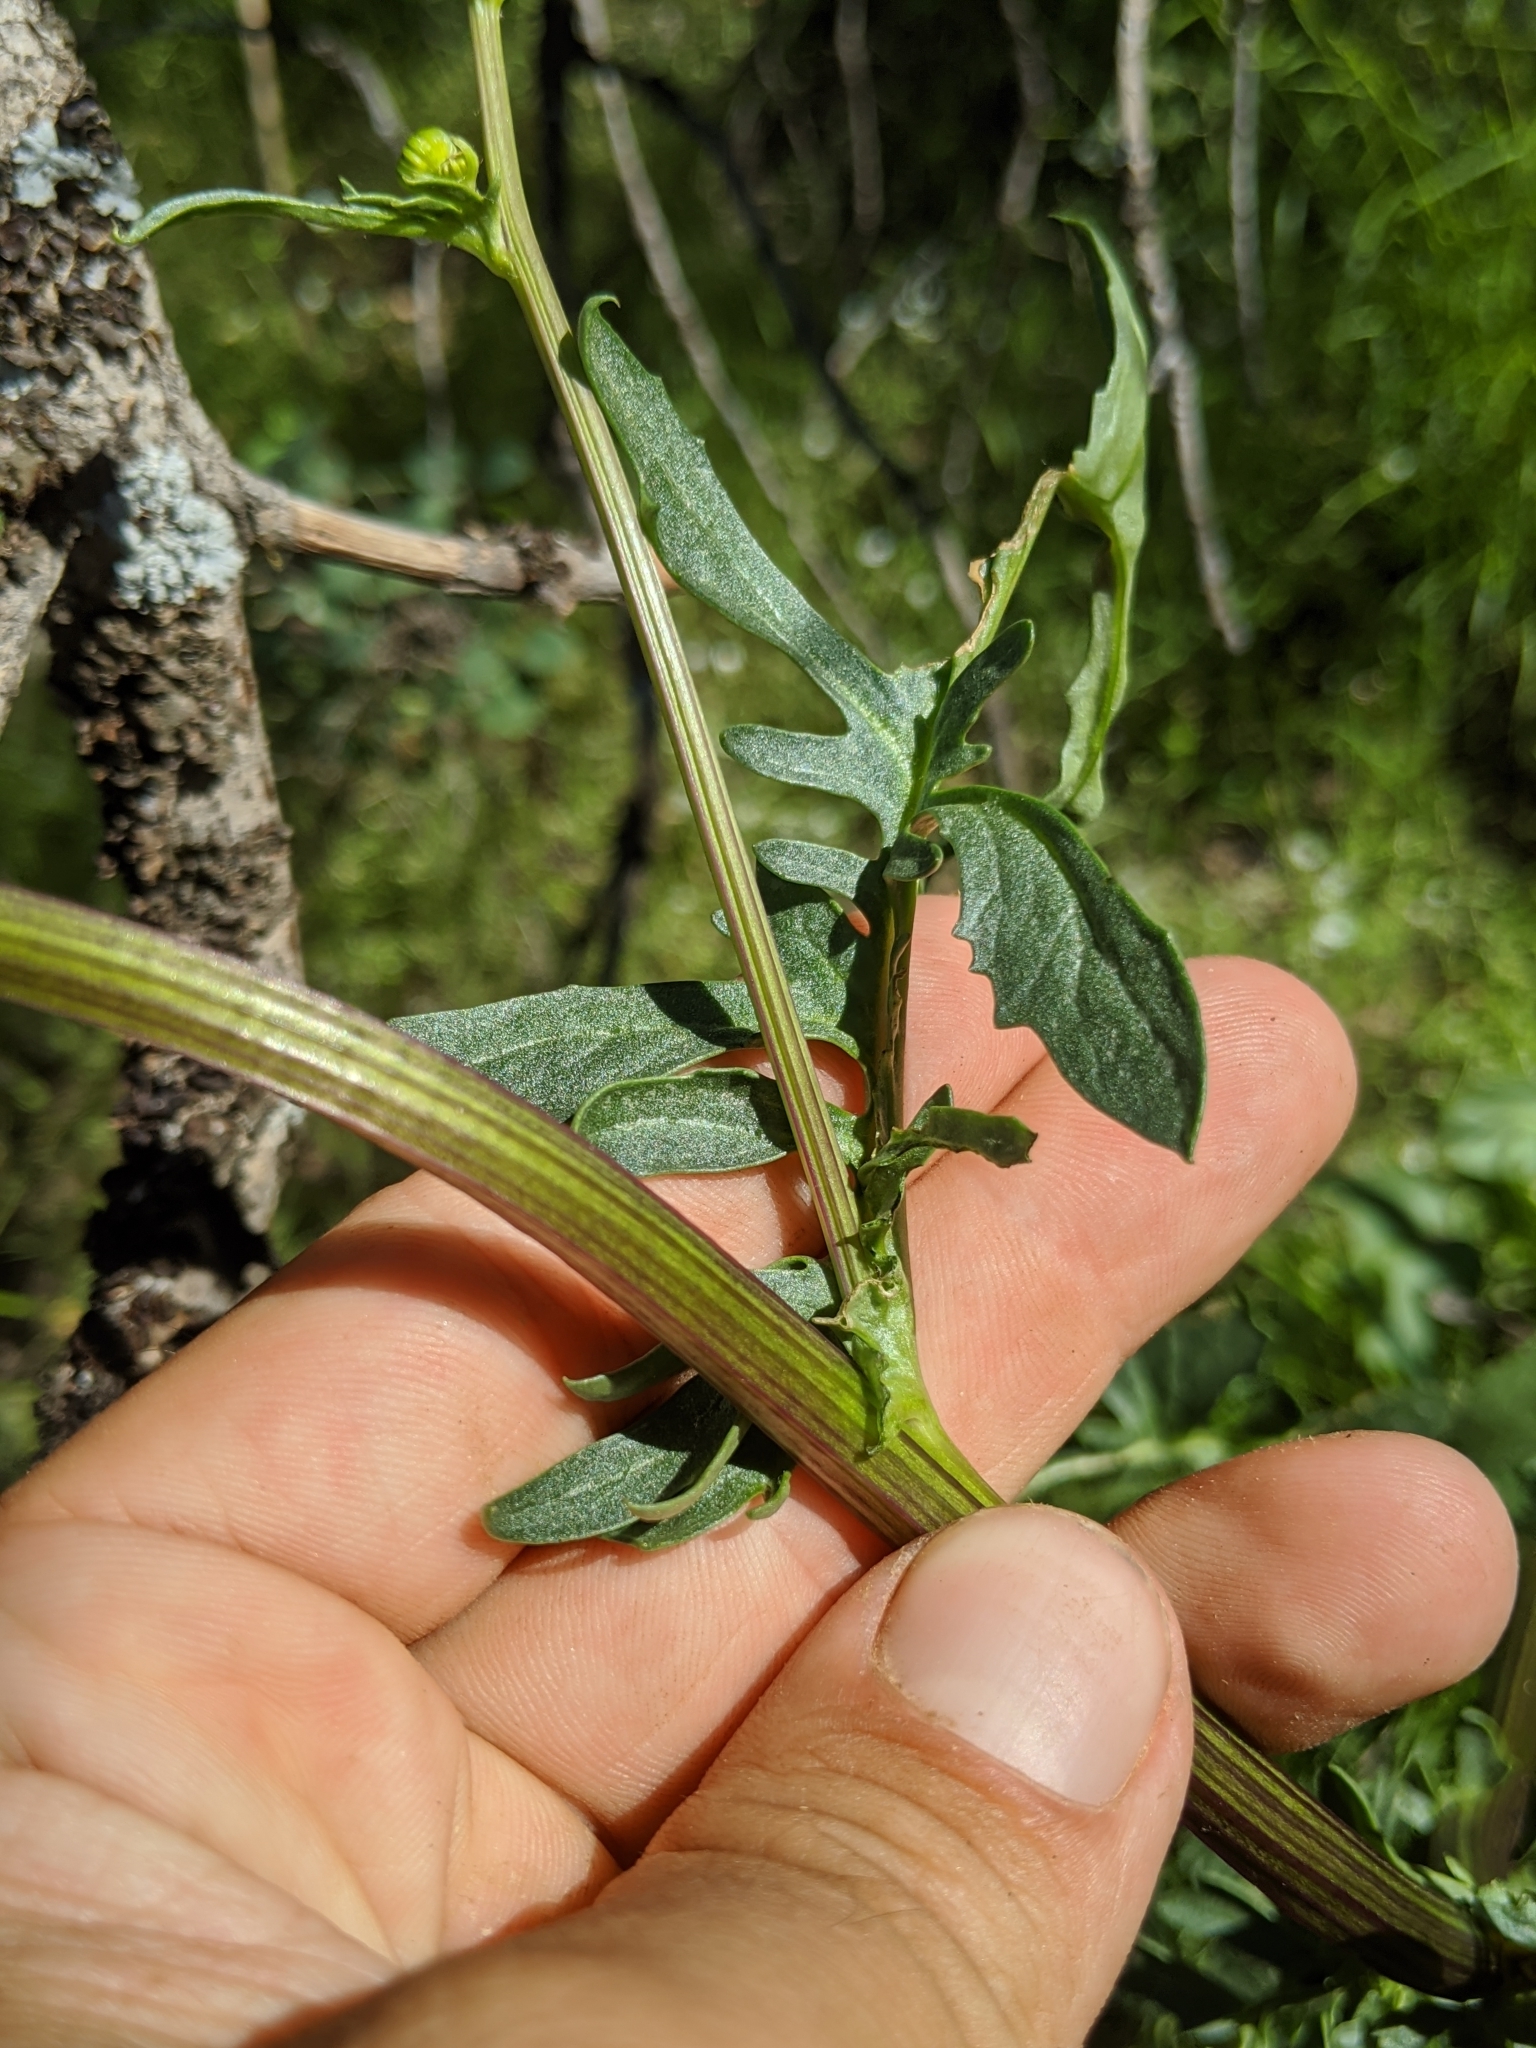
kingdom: Plantae
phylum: Tracheophyta
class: Magnoliopsida
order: Asterales
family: Asteraceae
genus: Packera
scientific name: Packera breweri
